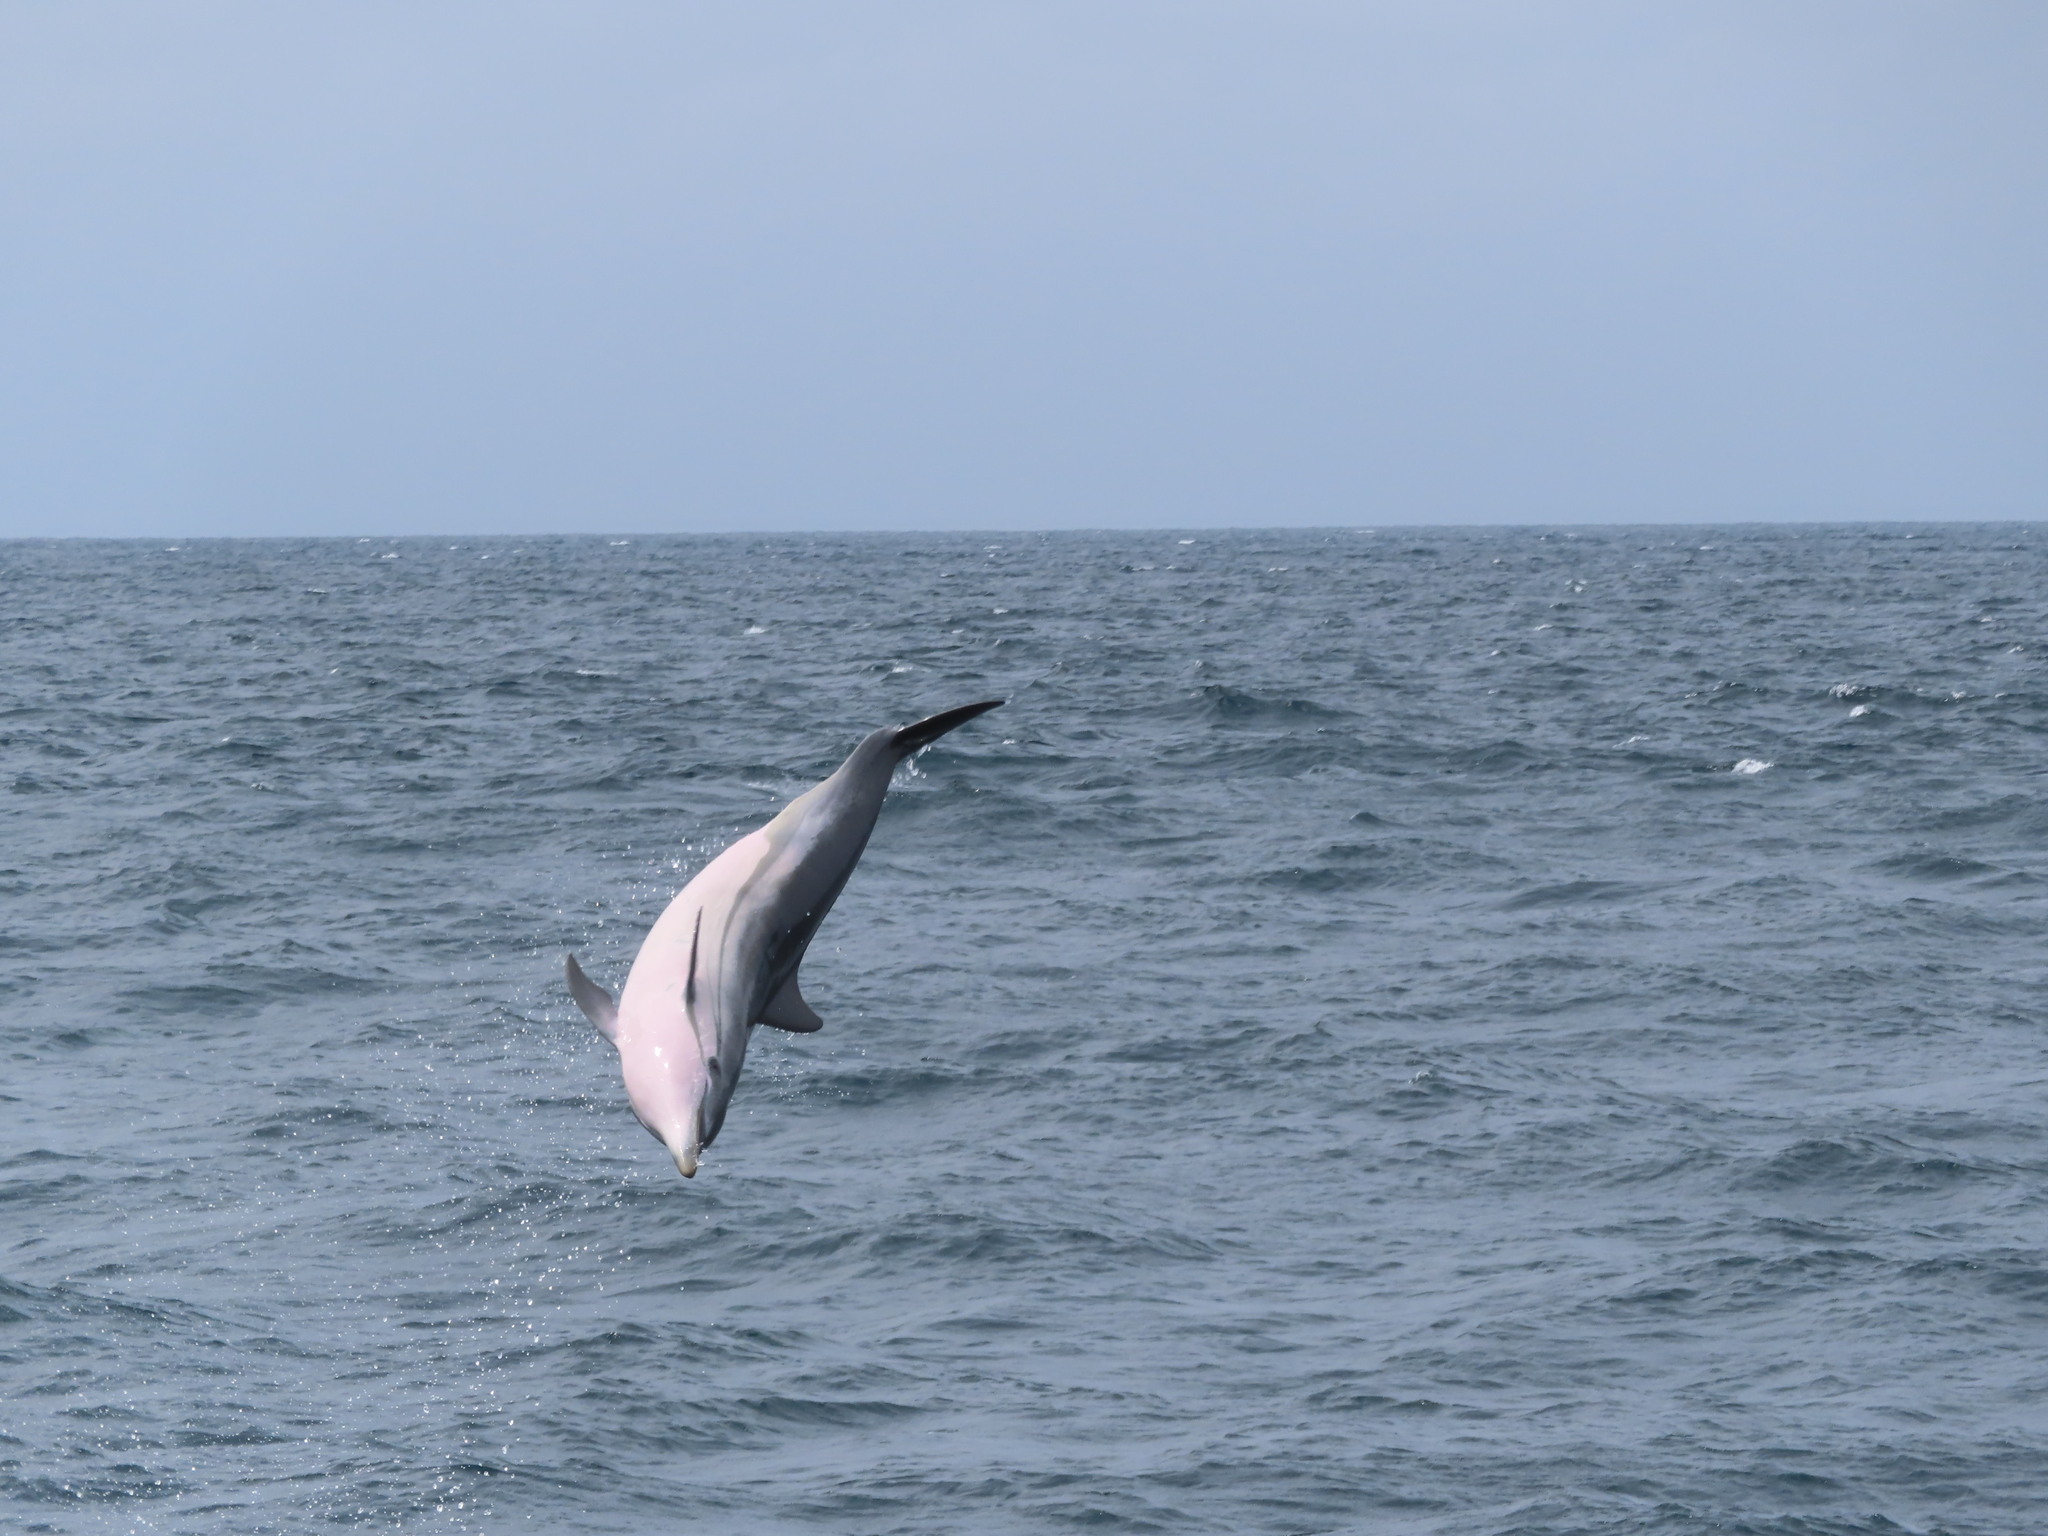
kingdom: Animalia
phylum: Chordata
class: Mammalia
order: Cetacea
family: Delphinidae
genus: Stenella
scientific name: Stenella coeruleoalba
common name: Striped dolphin
